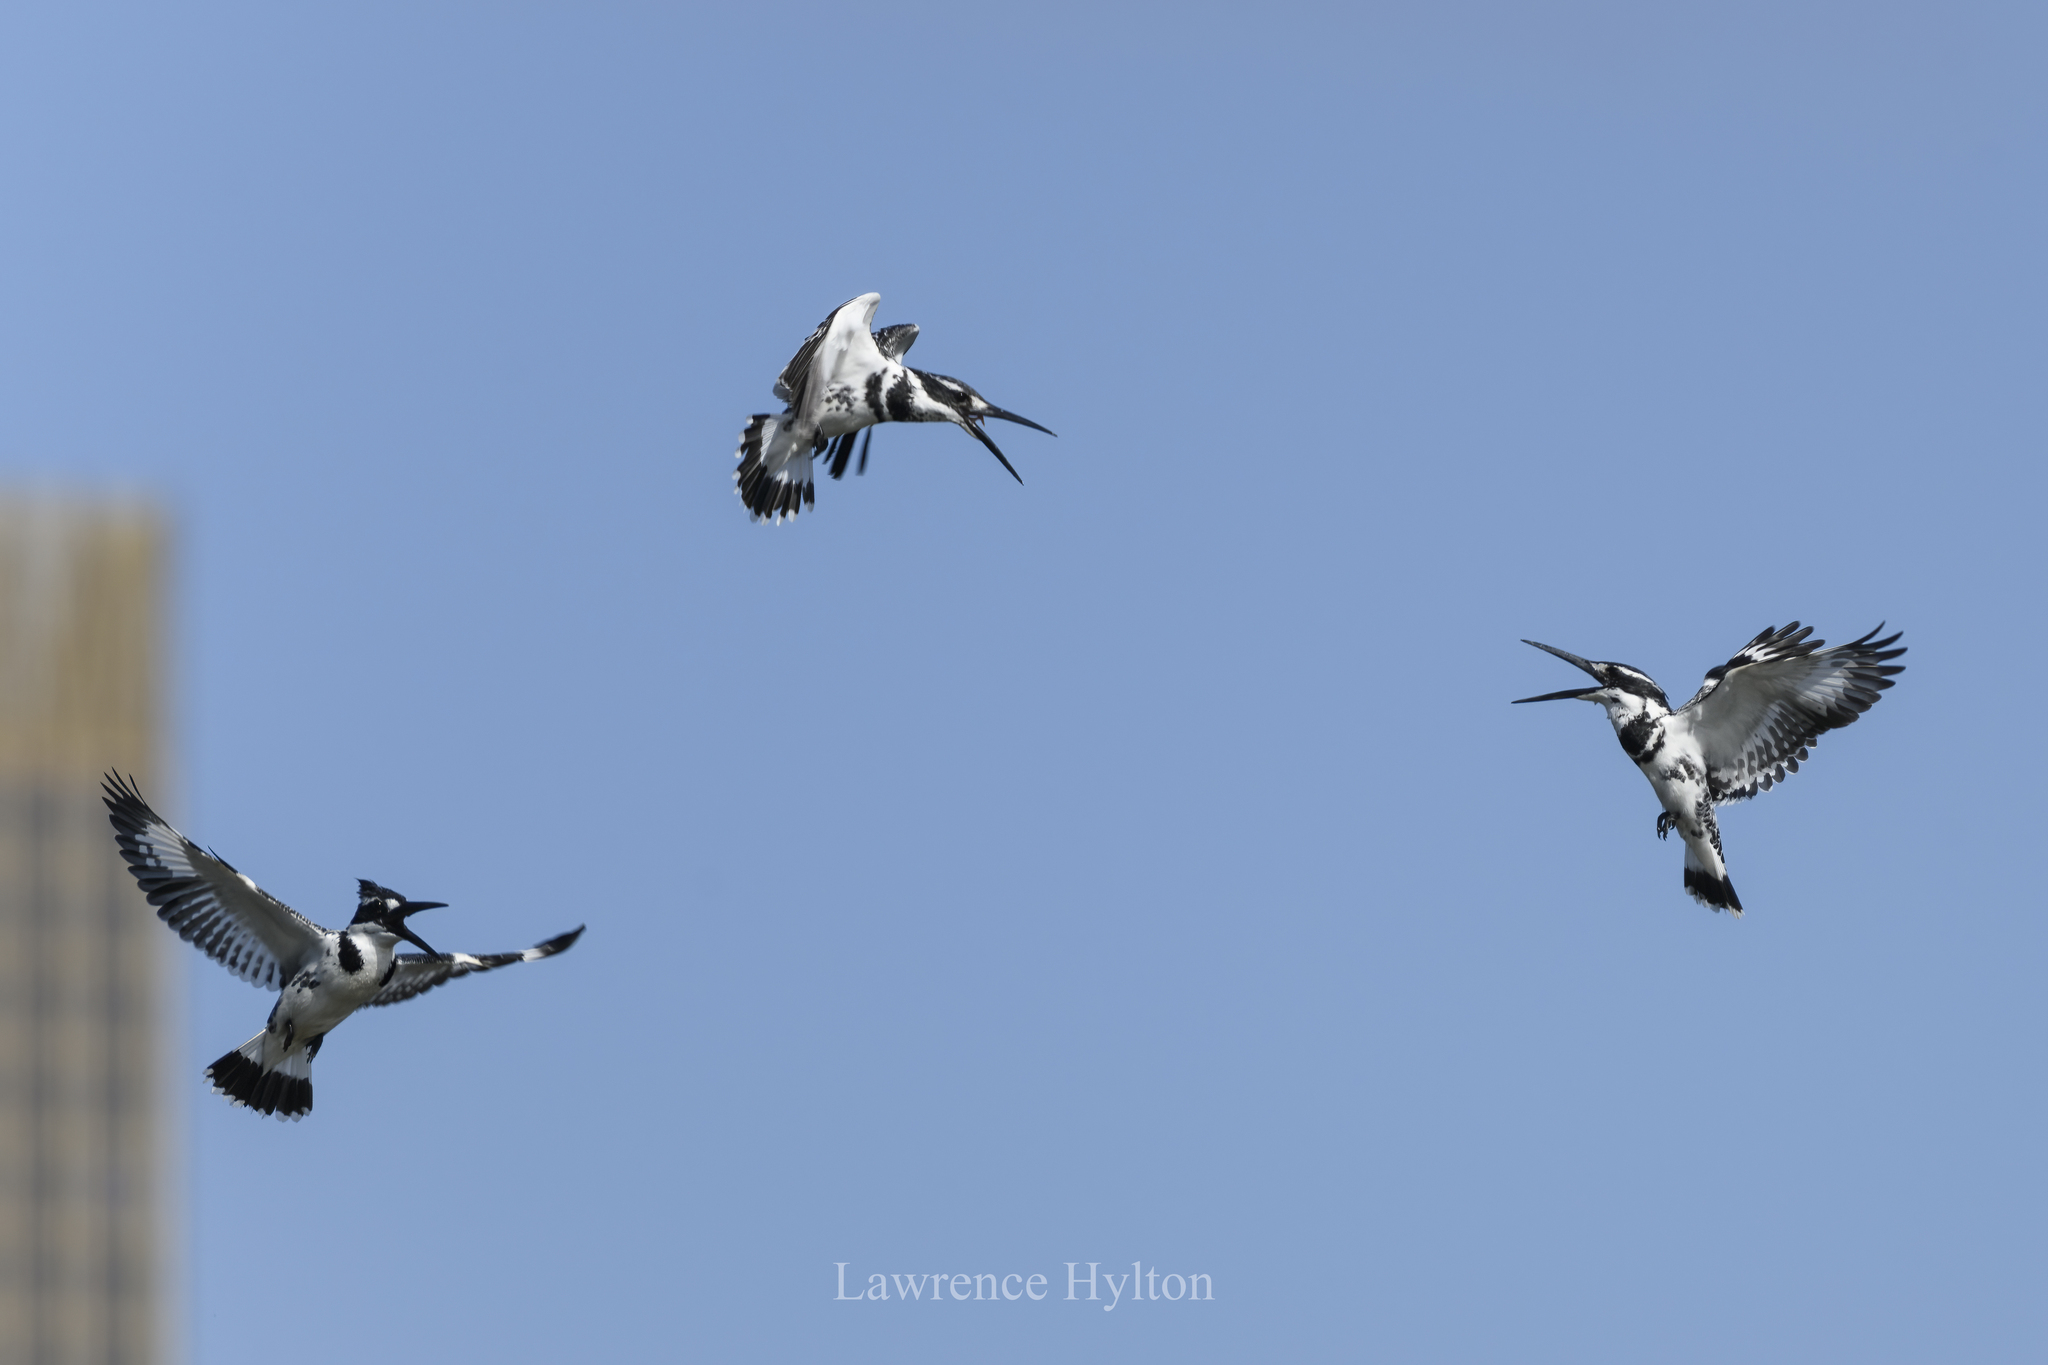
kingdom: Animalia
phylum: Chordata
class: Aves
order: Coraciiformes
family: Alcedinidae
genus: Ceryle
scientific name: Ceryle rudis
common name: Pied kingfisher
